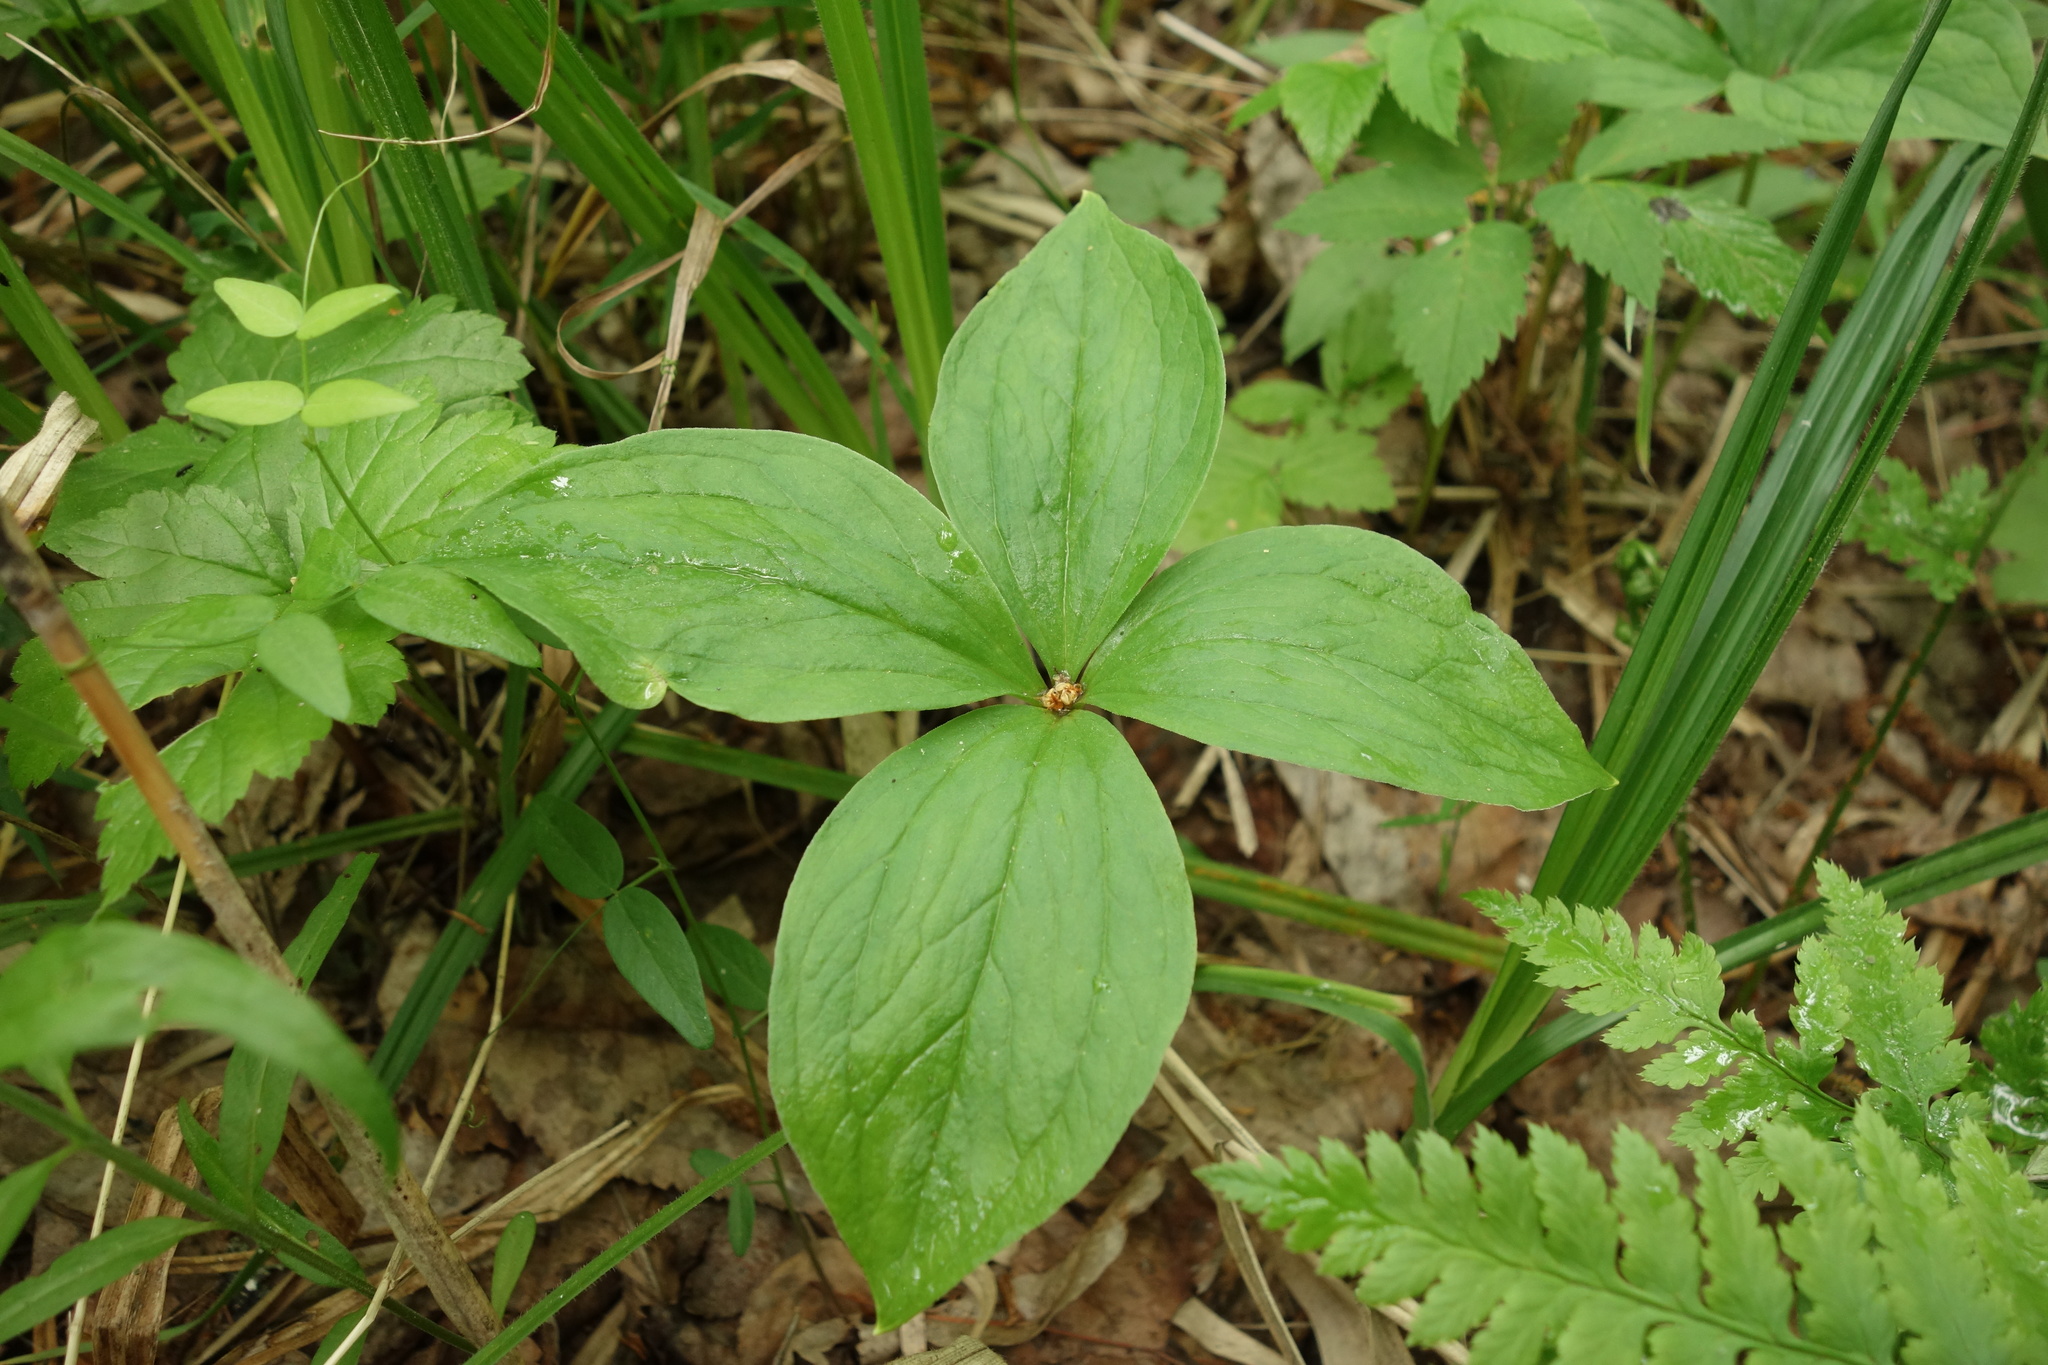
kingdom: Plantae
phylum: Tracheophyta
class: Liliopsida
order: Liliales
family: Melanthiaceae
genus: Paris
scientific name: Paris quadrifolia
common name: Herb-paris
